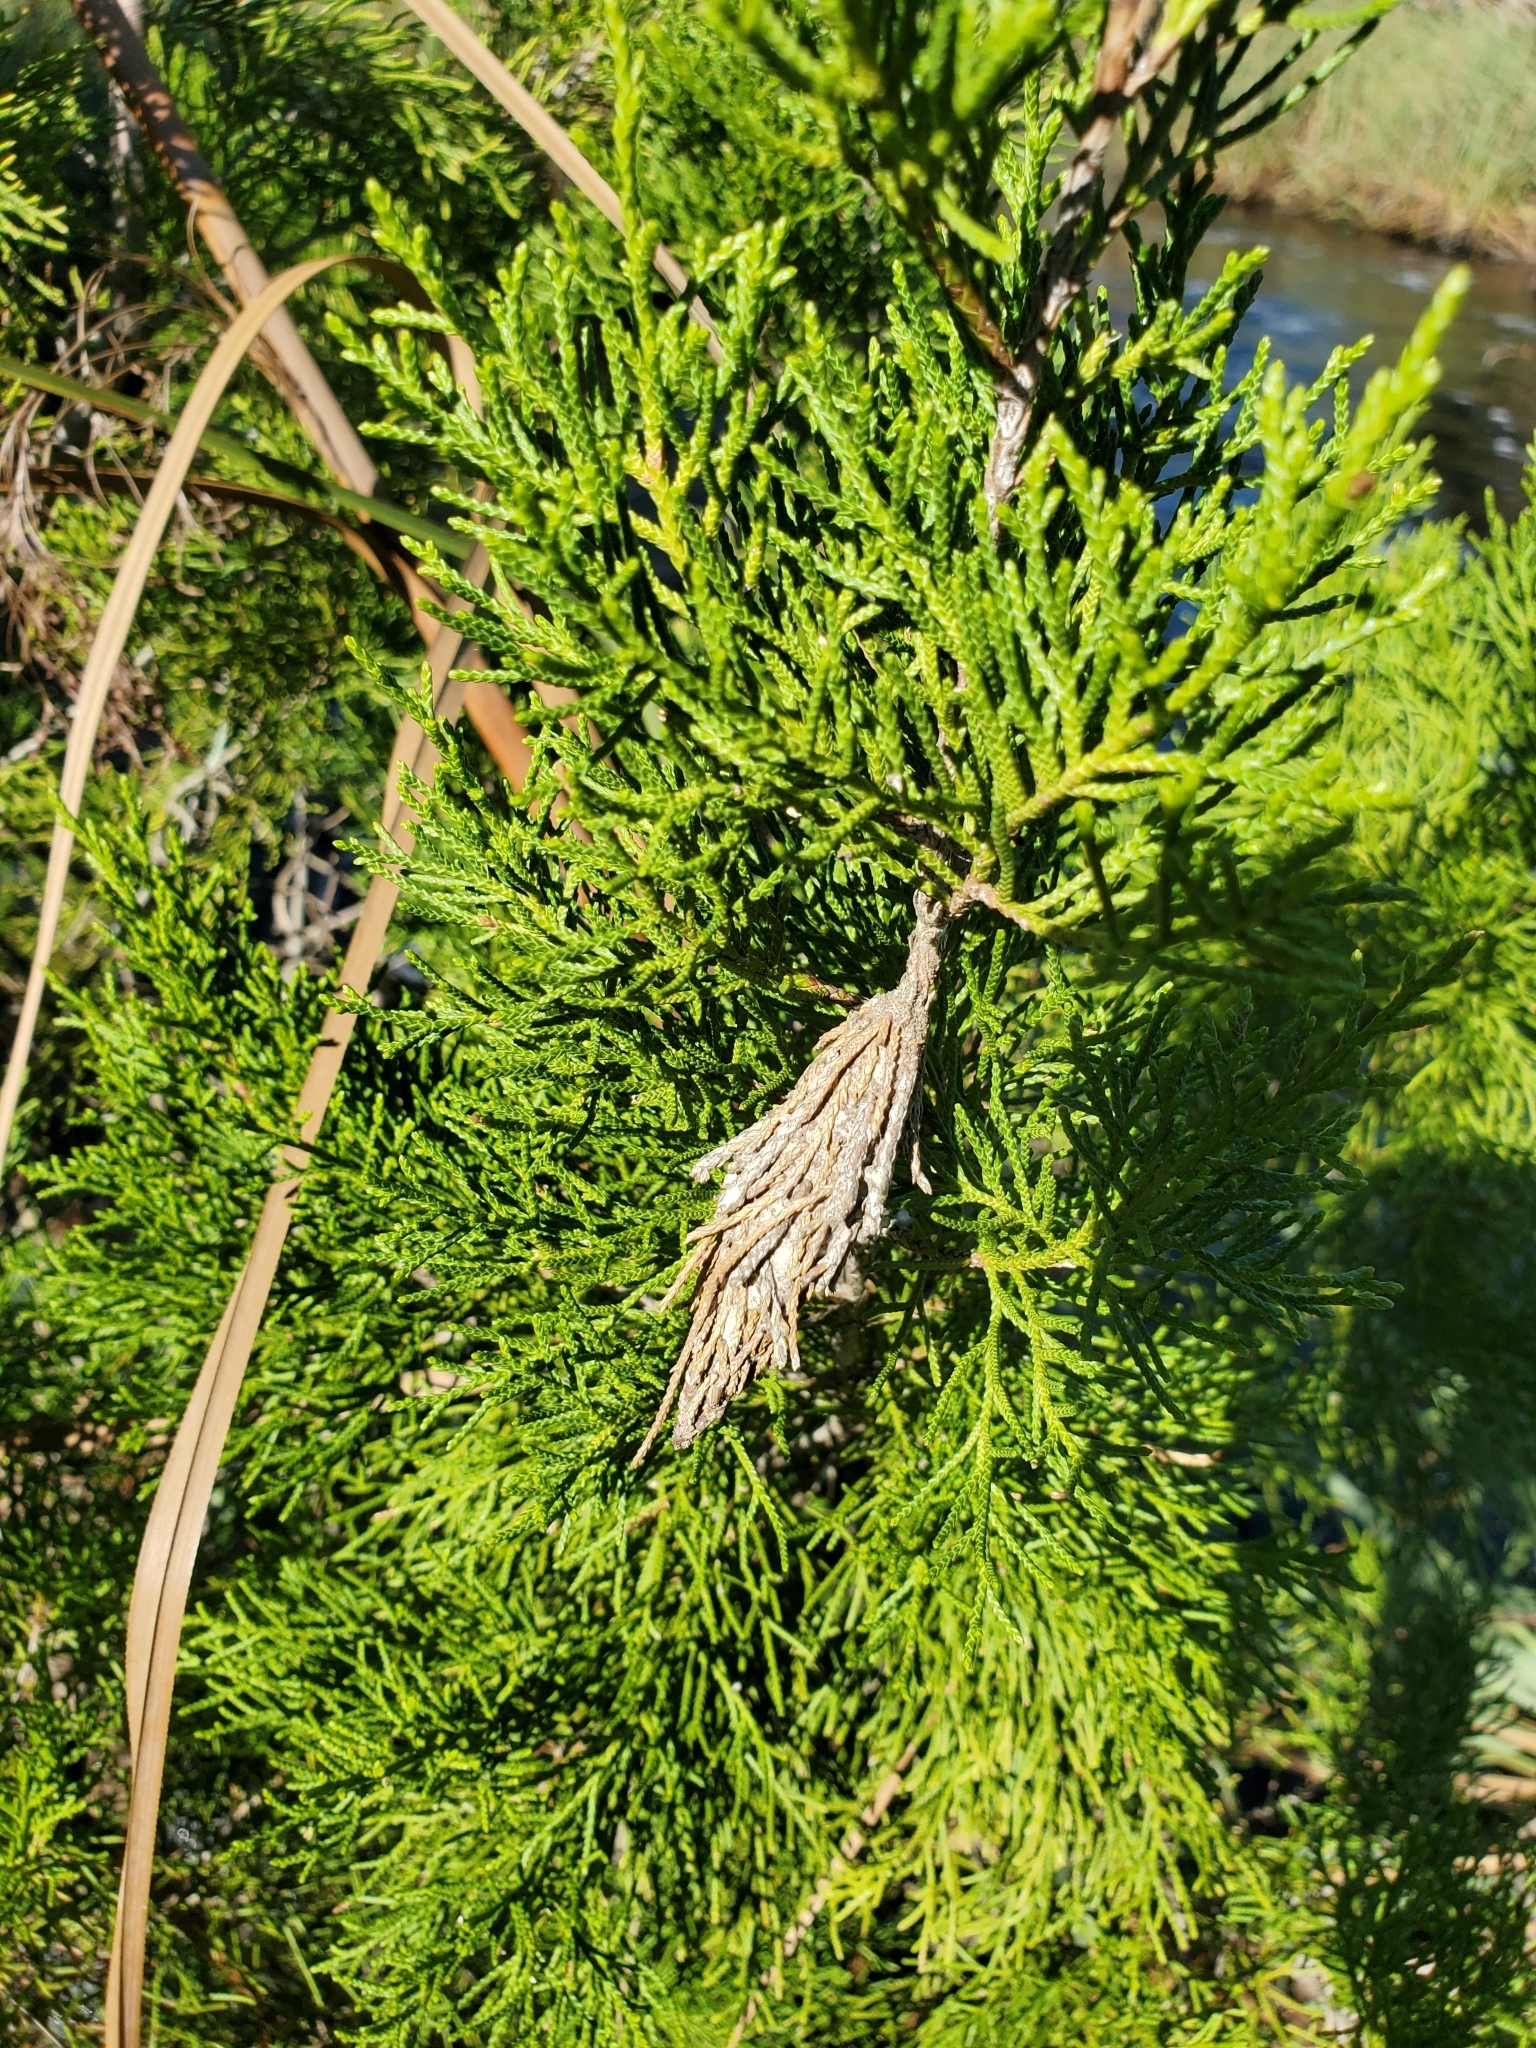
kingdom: Animalia
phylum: Arthropoda
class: Insecta
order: Lepidoptera
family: Psychidae
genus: Thyridopteryx
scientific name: Thyridopteryx ephemeraeformis
